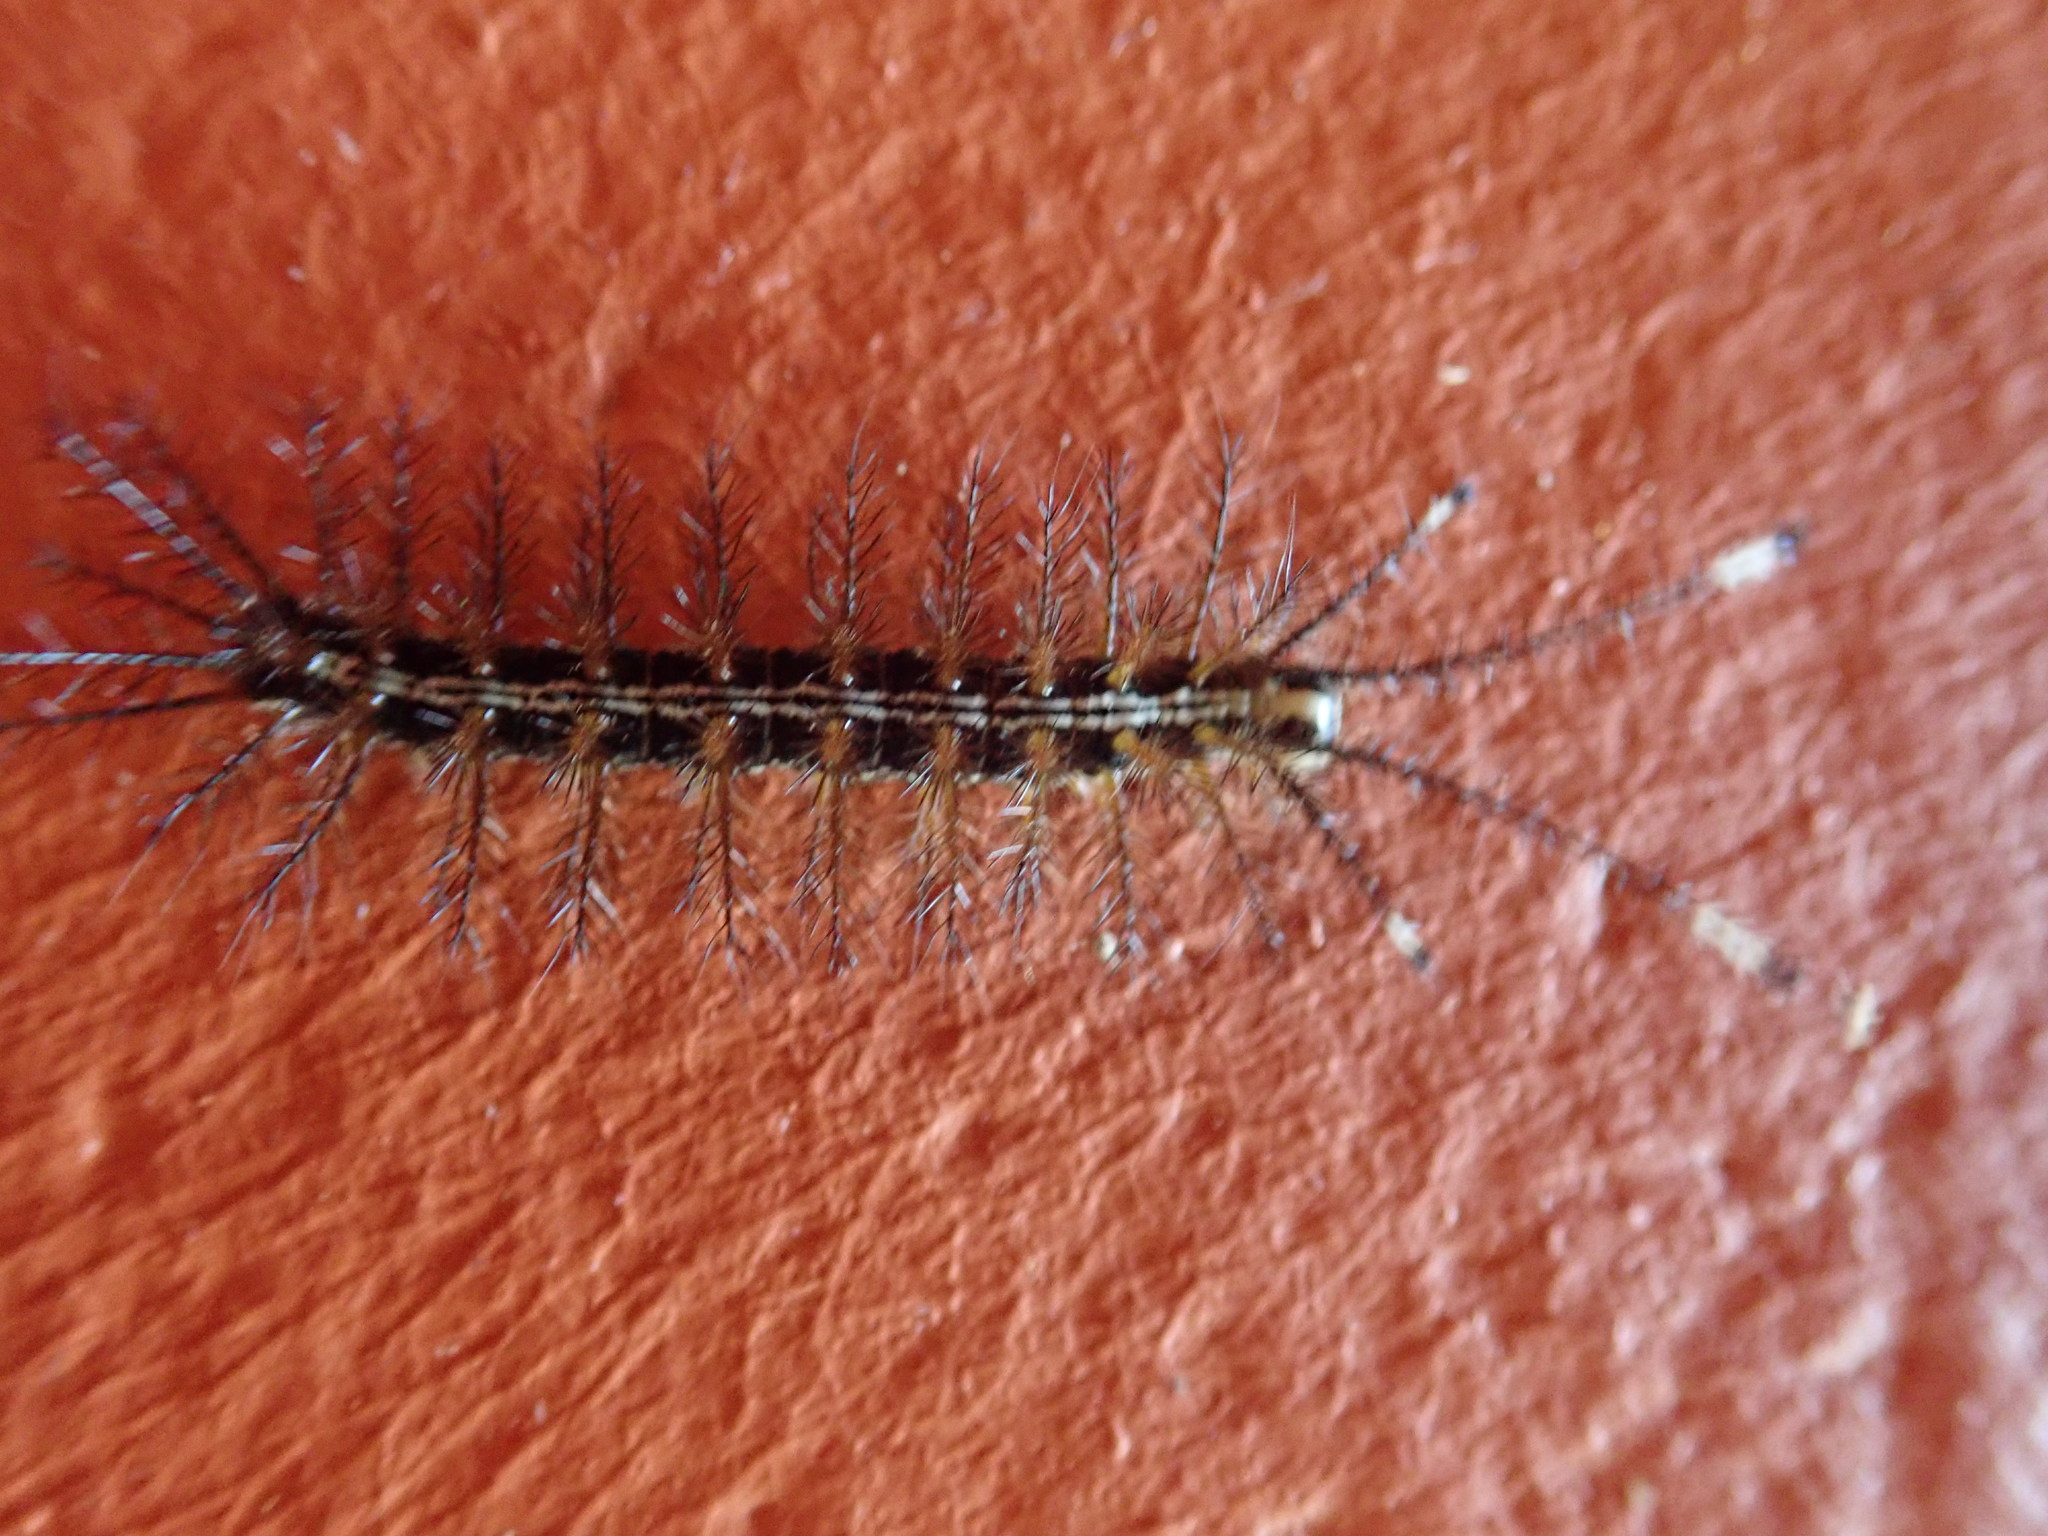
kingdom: Animalia
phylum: Arthropoda
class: Insecta
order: Lepidoptera
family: Saturniidae
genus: Hylesia
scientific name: Hylesia continua
